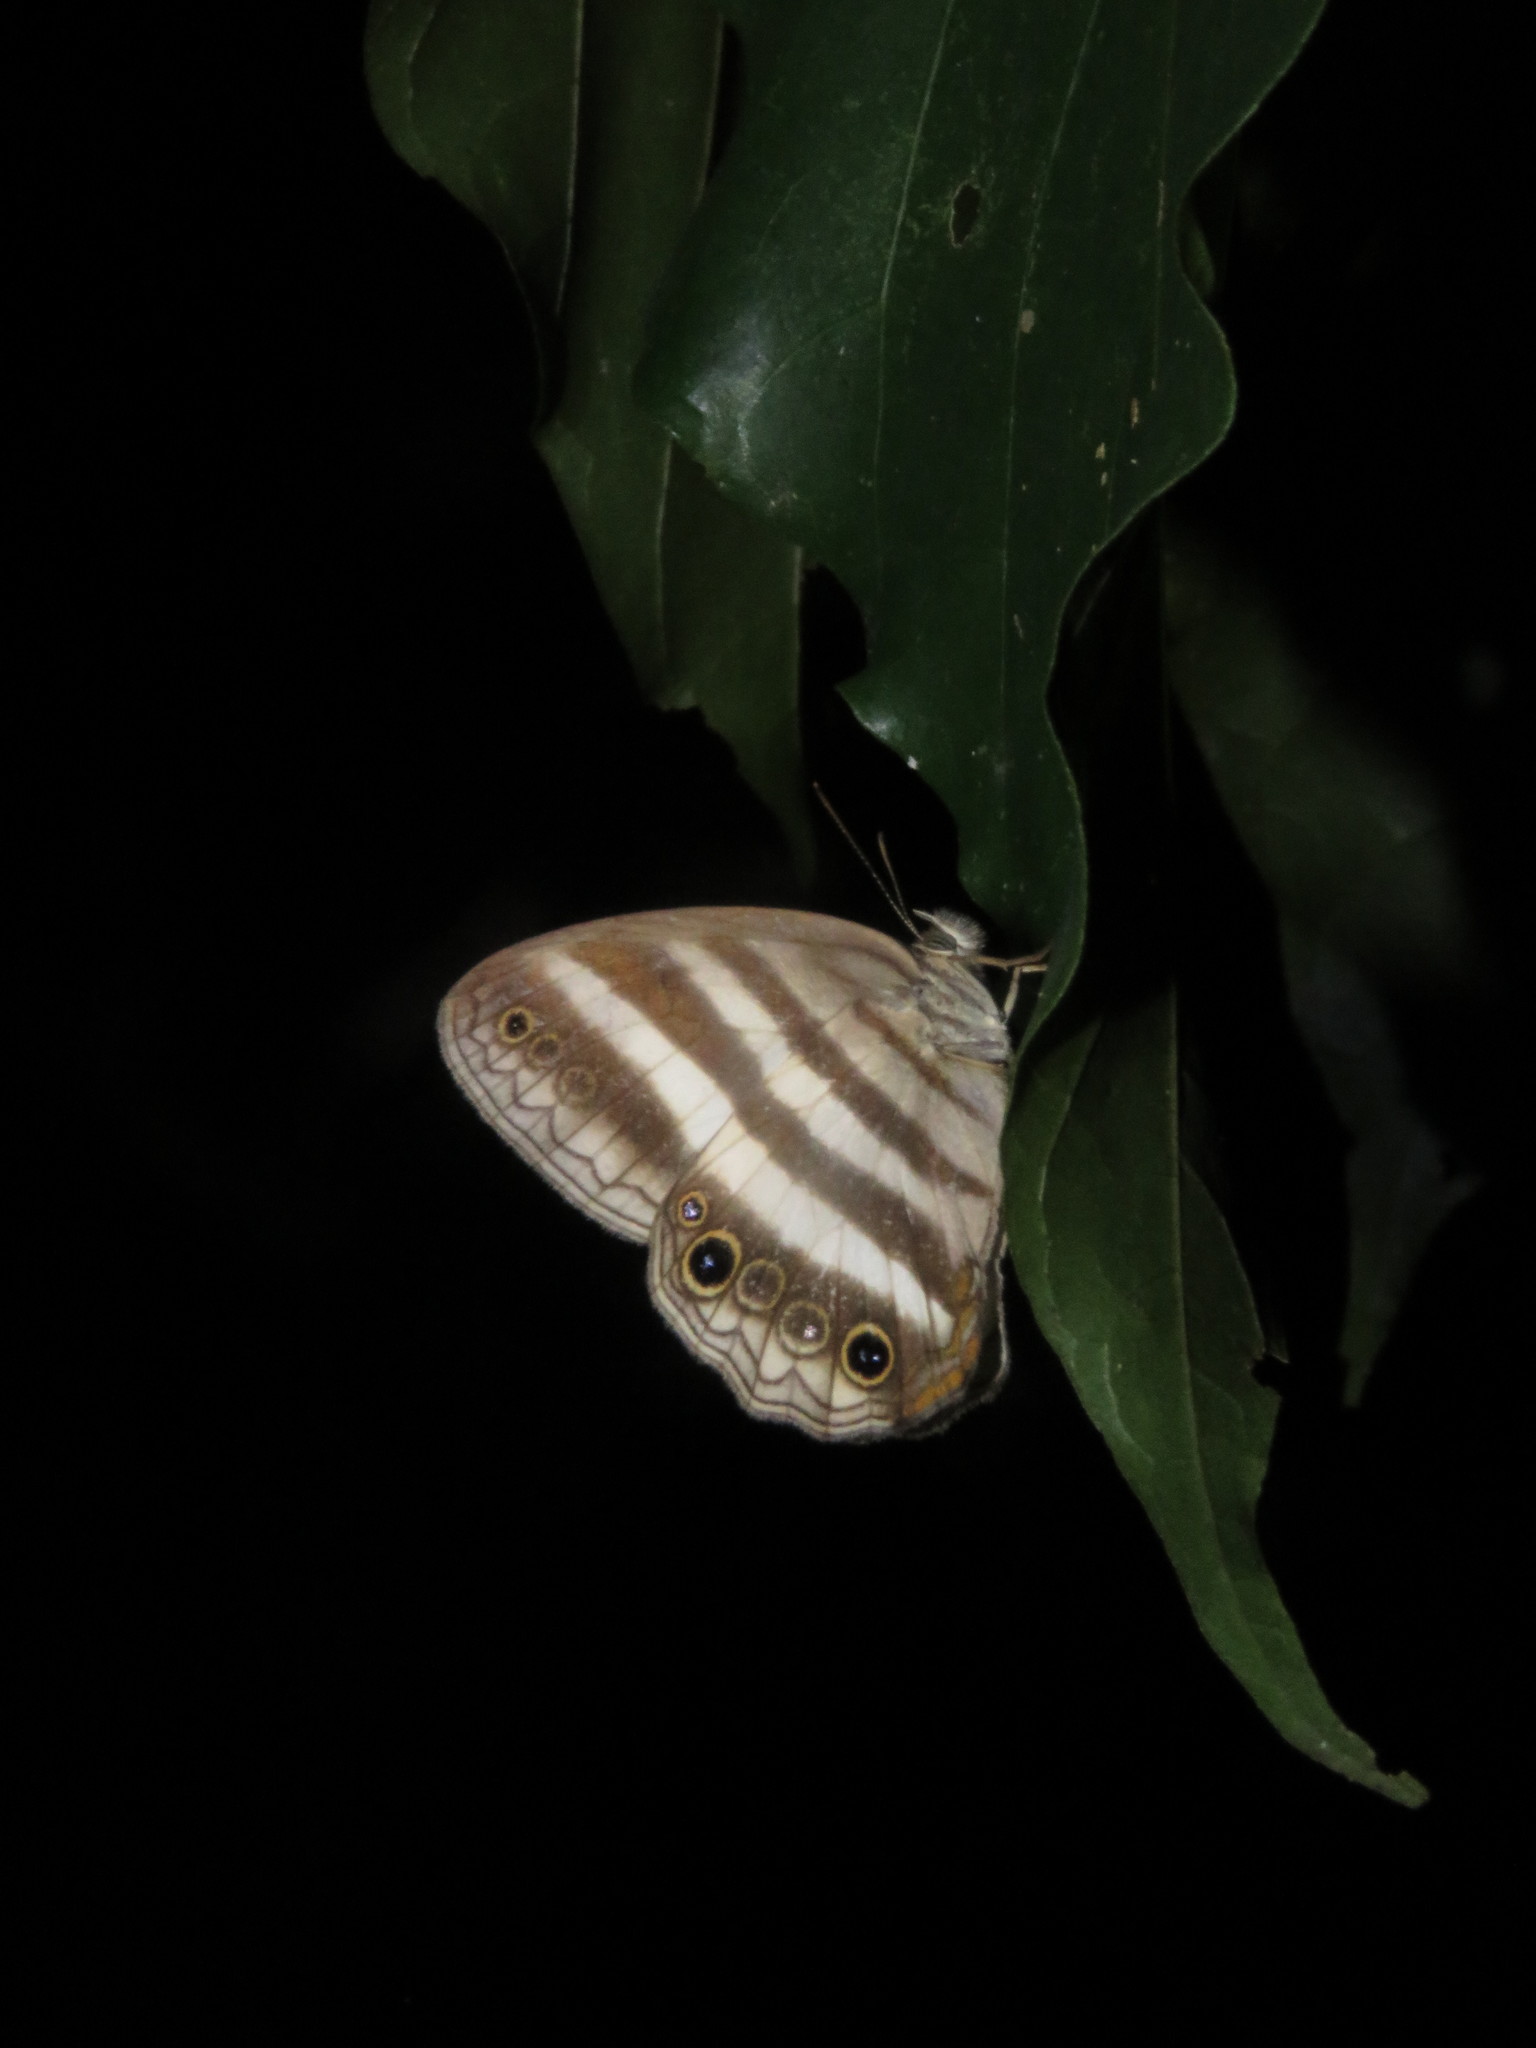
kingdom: Animalia
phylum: Arthropoda
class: Insecta
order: Lepidoptera
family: Nymphalidae
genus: Pareuptychia
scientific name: Pareuptychia hesione
